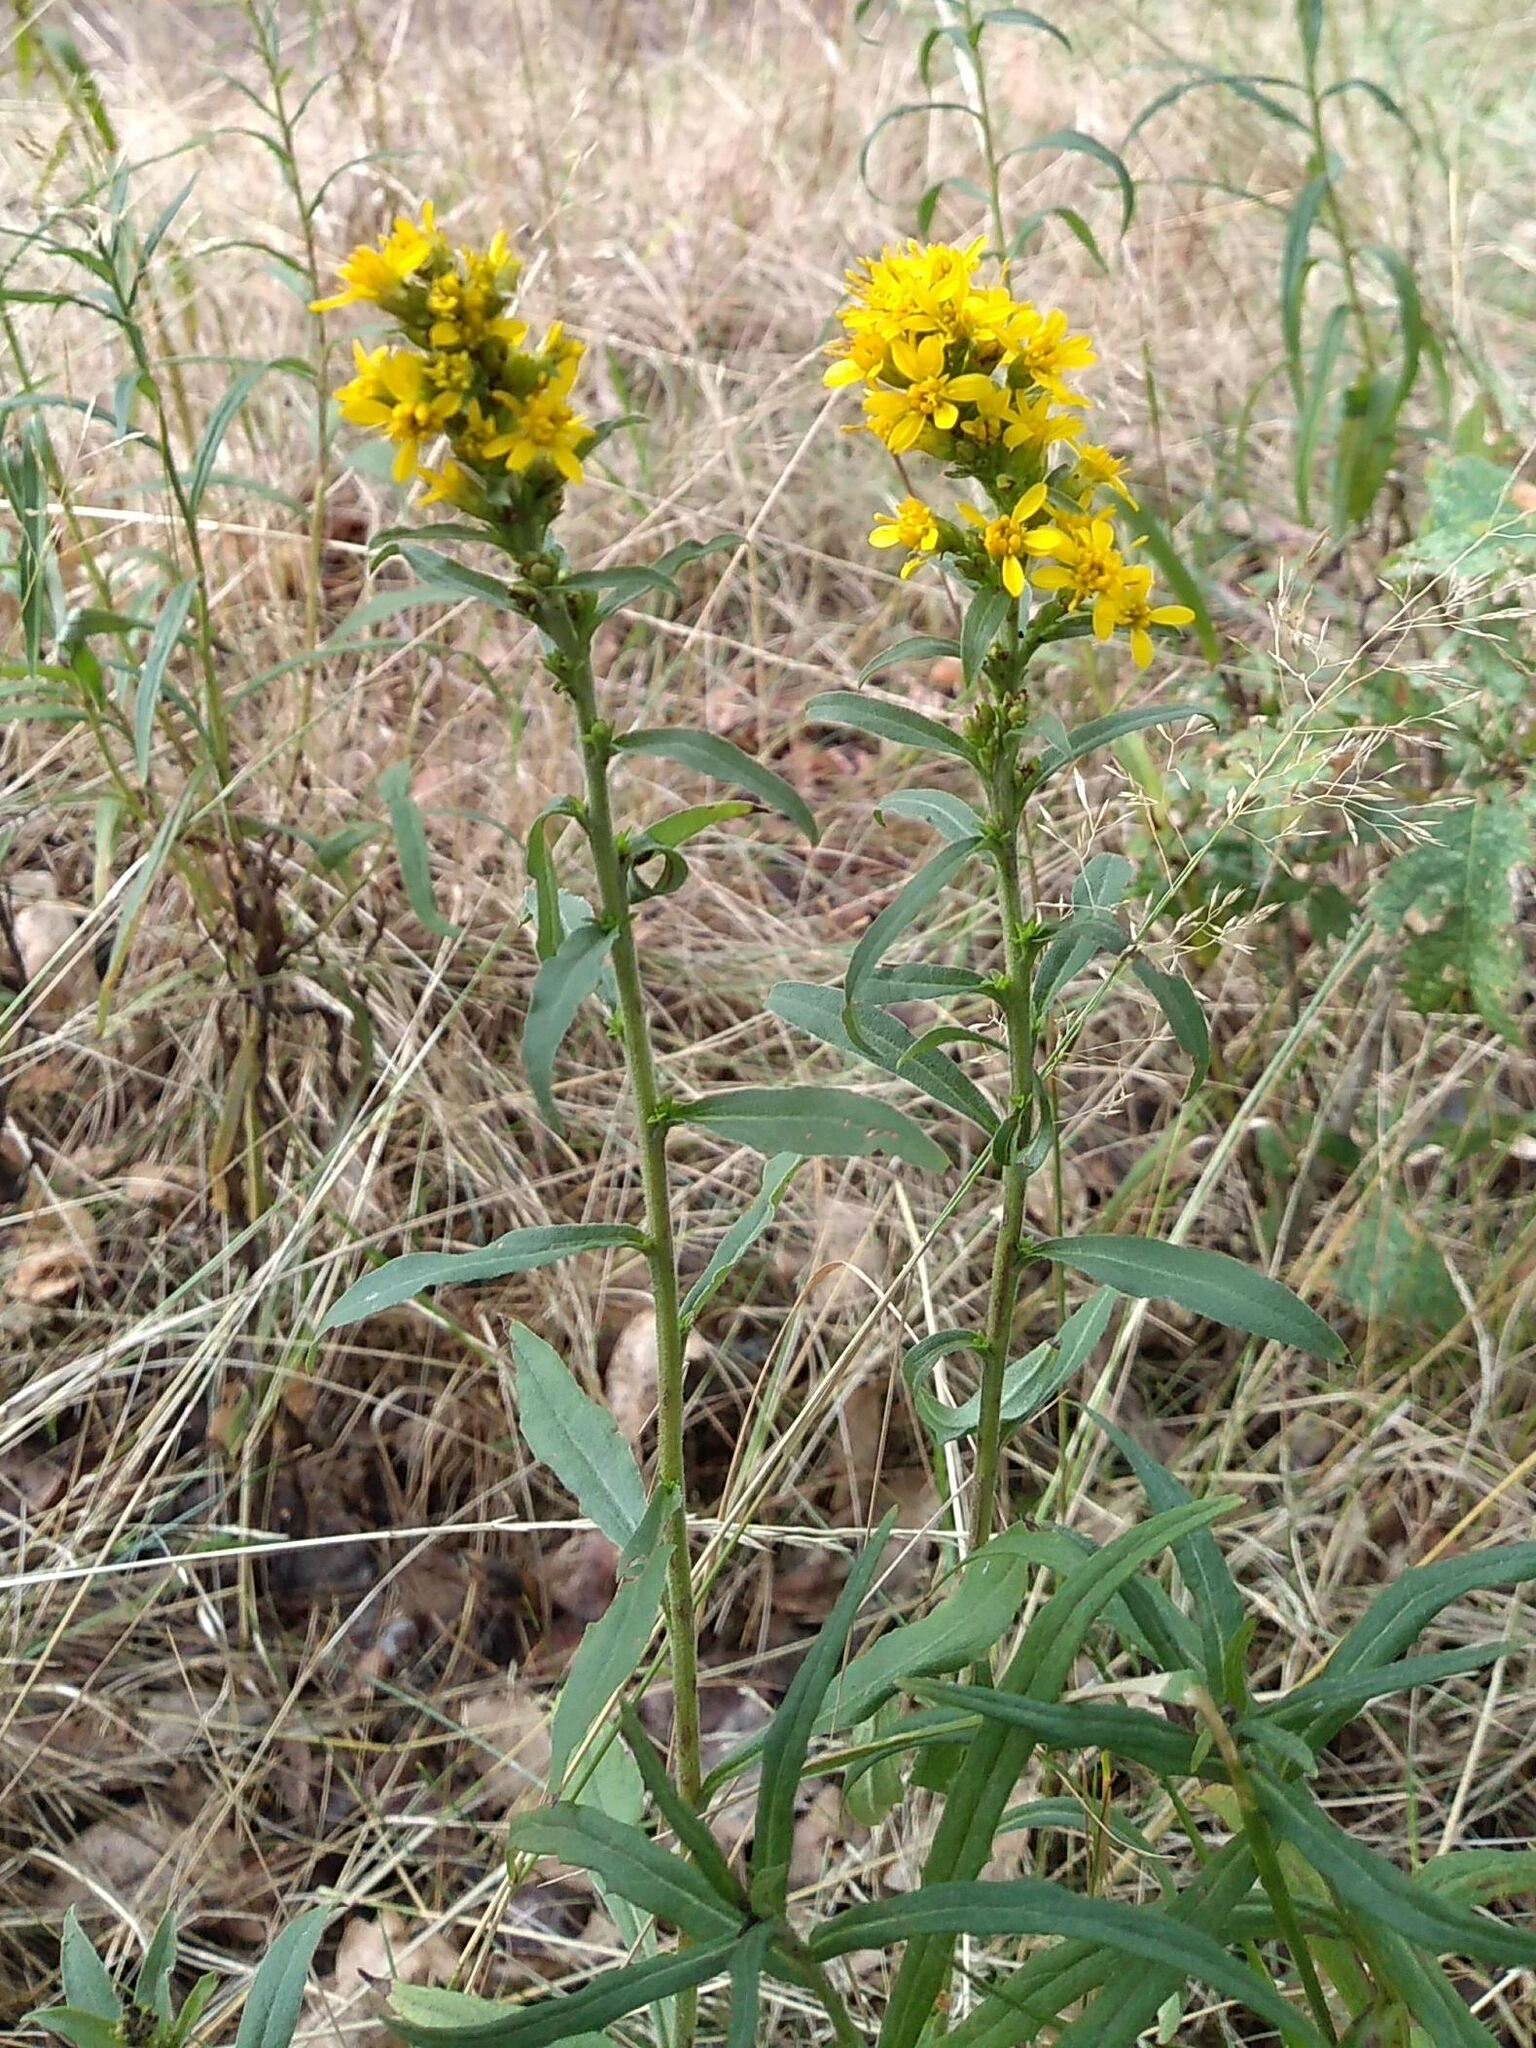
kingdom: Plantae
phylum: Tracheophyta
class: Magnoliopsida
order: Asterales
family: Asteraceae
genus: Solidago
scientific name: Solidago virgaurea
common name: Goldenrod
